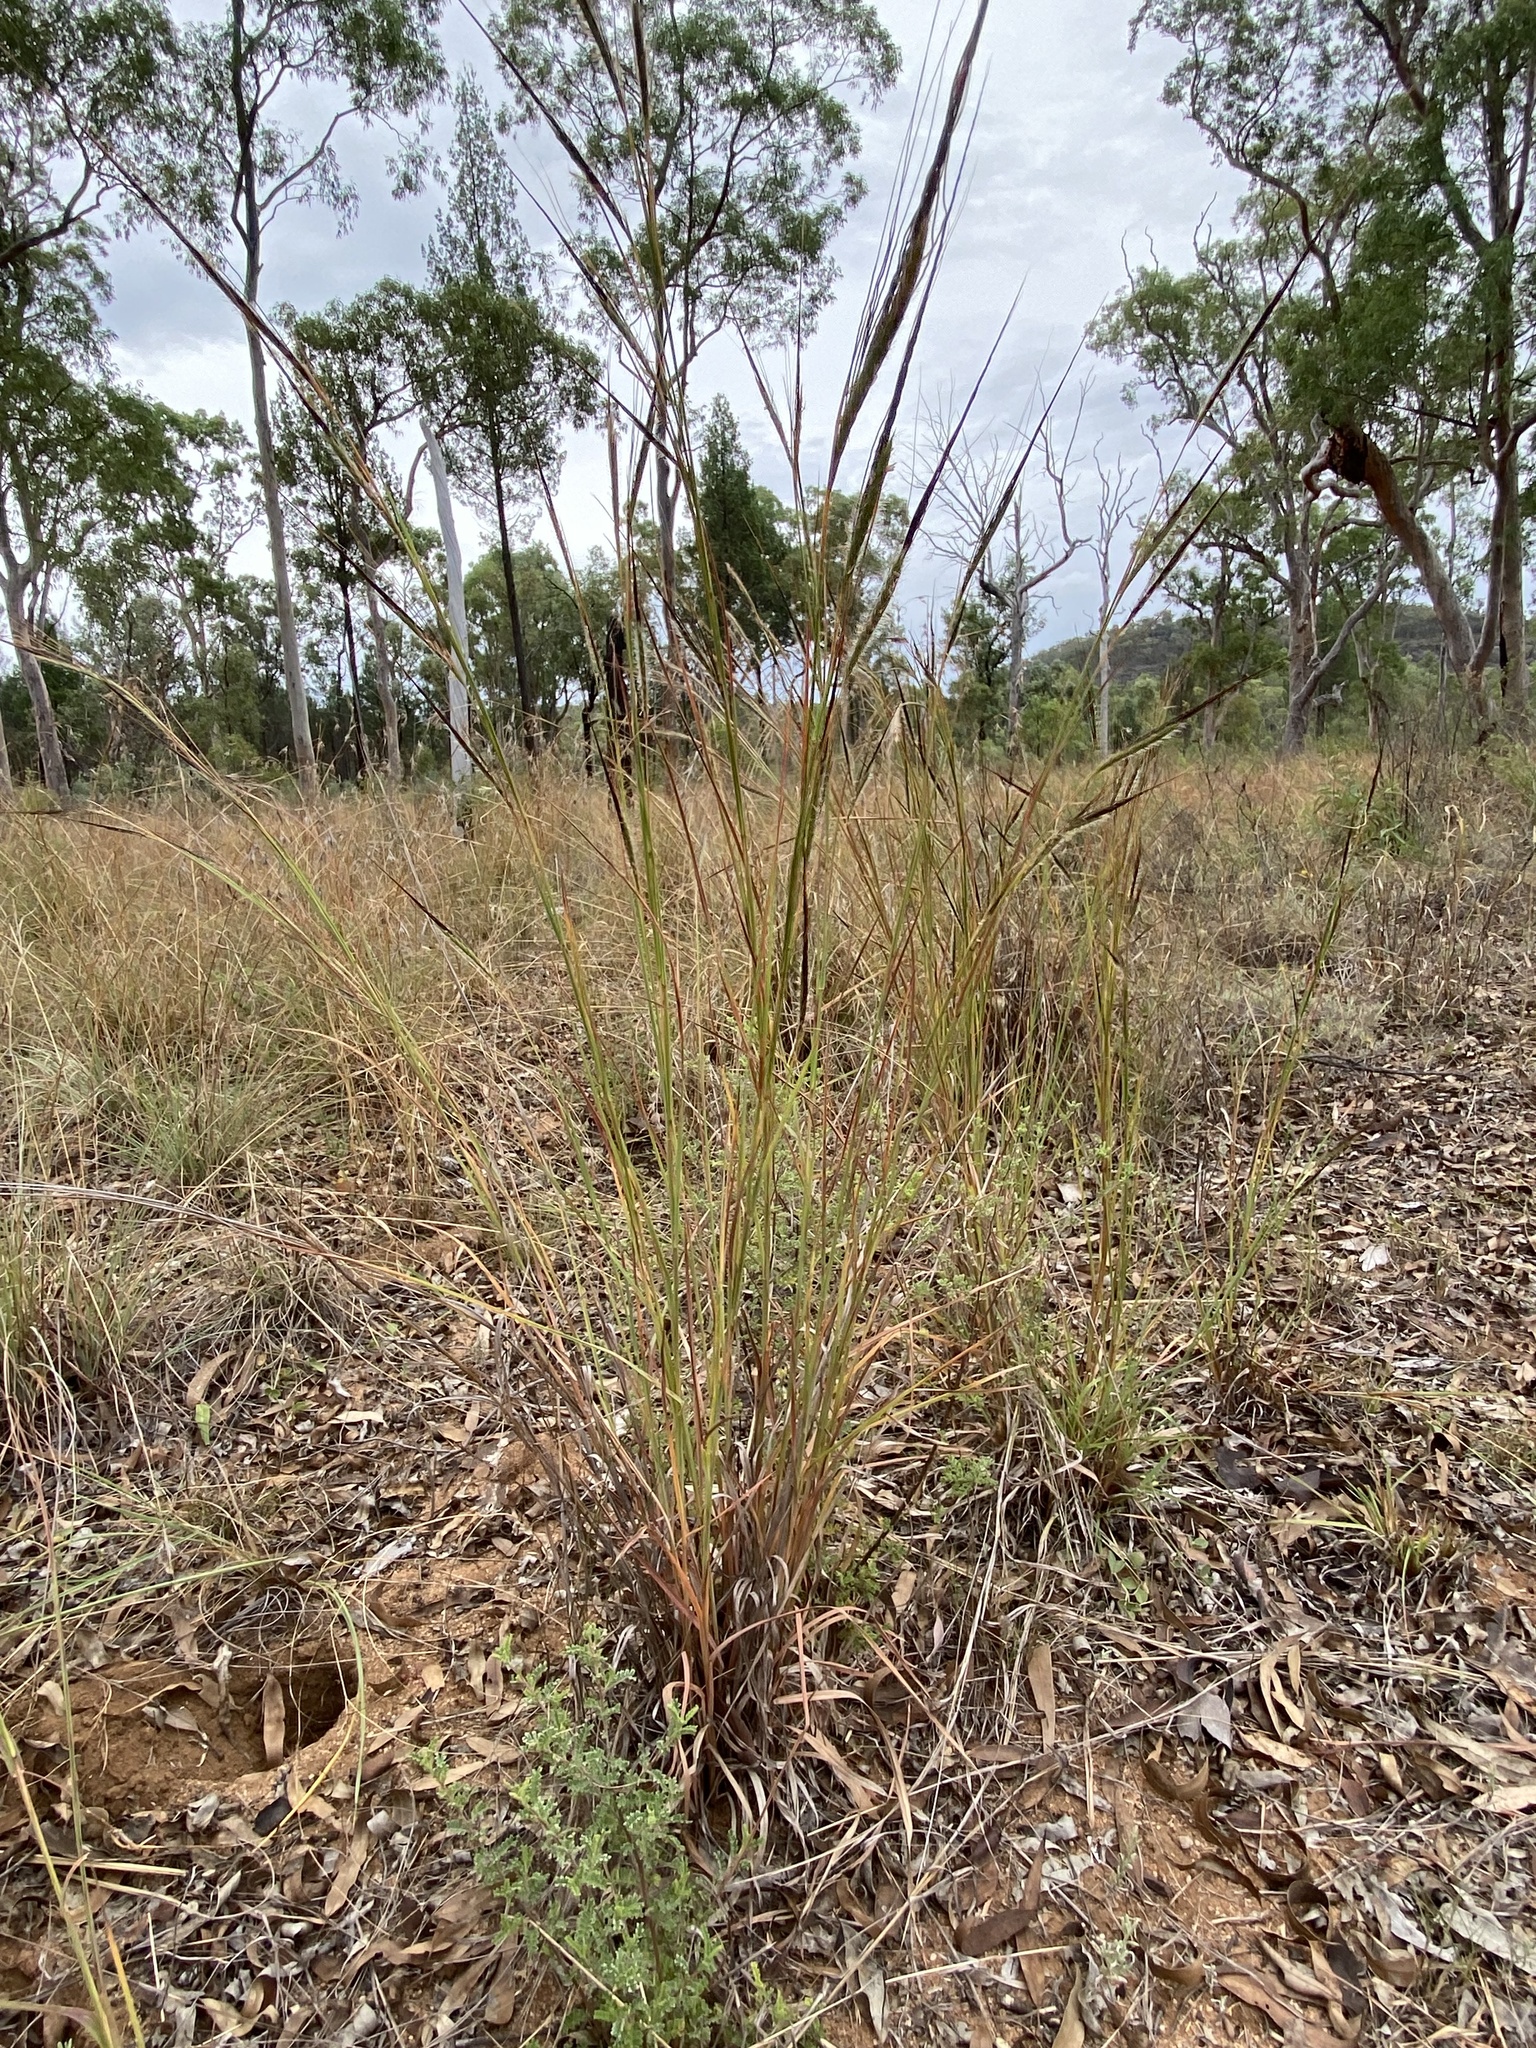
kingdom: Plantae
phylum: Tracheophyta
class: Liliopsida
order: Poales
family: Poaceae
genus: Heteropogon
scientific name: Heteropogon contortus
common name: Tanglehead
